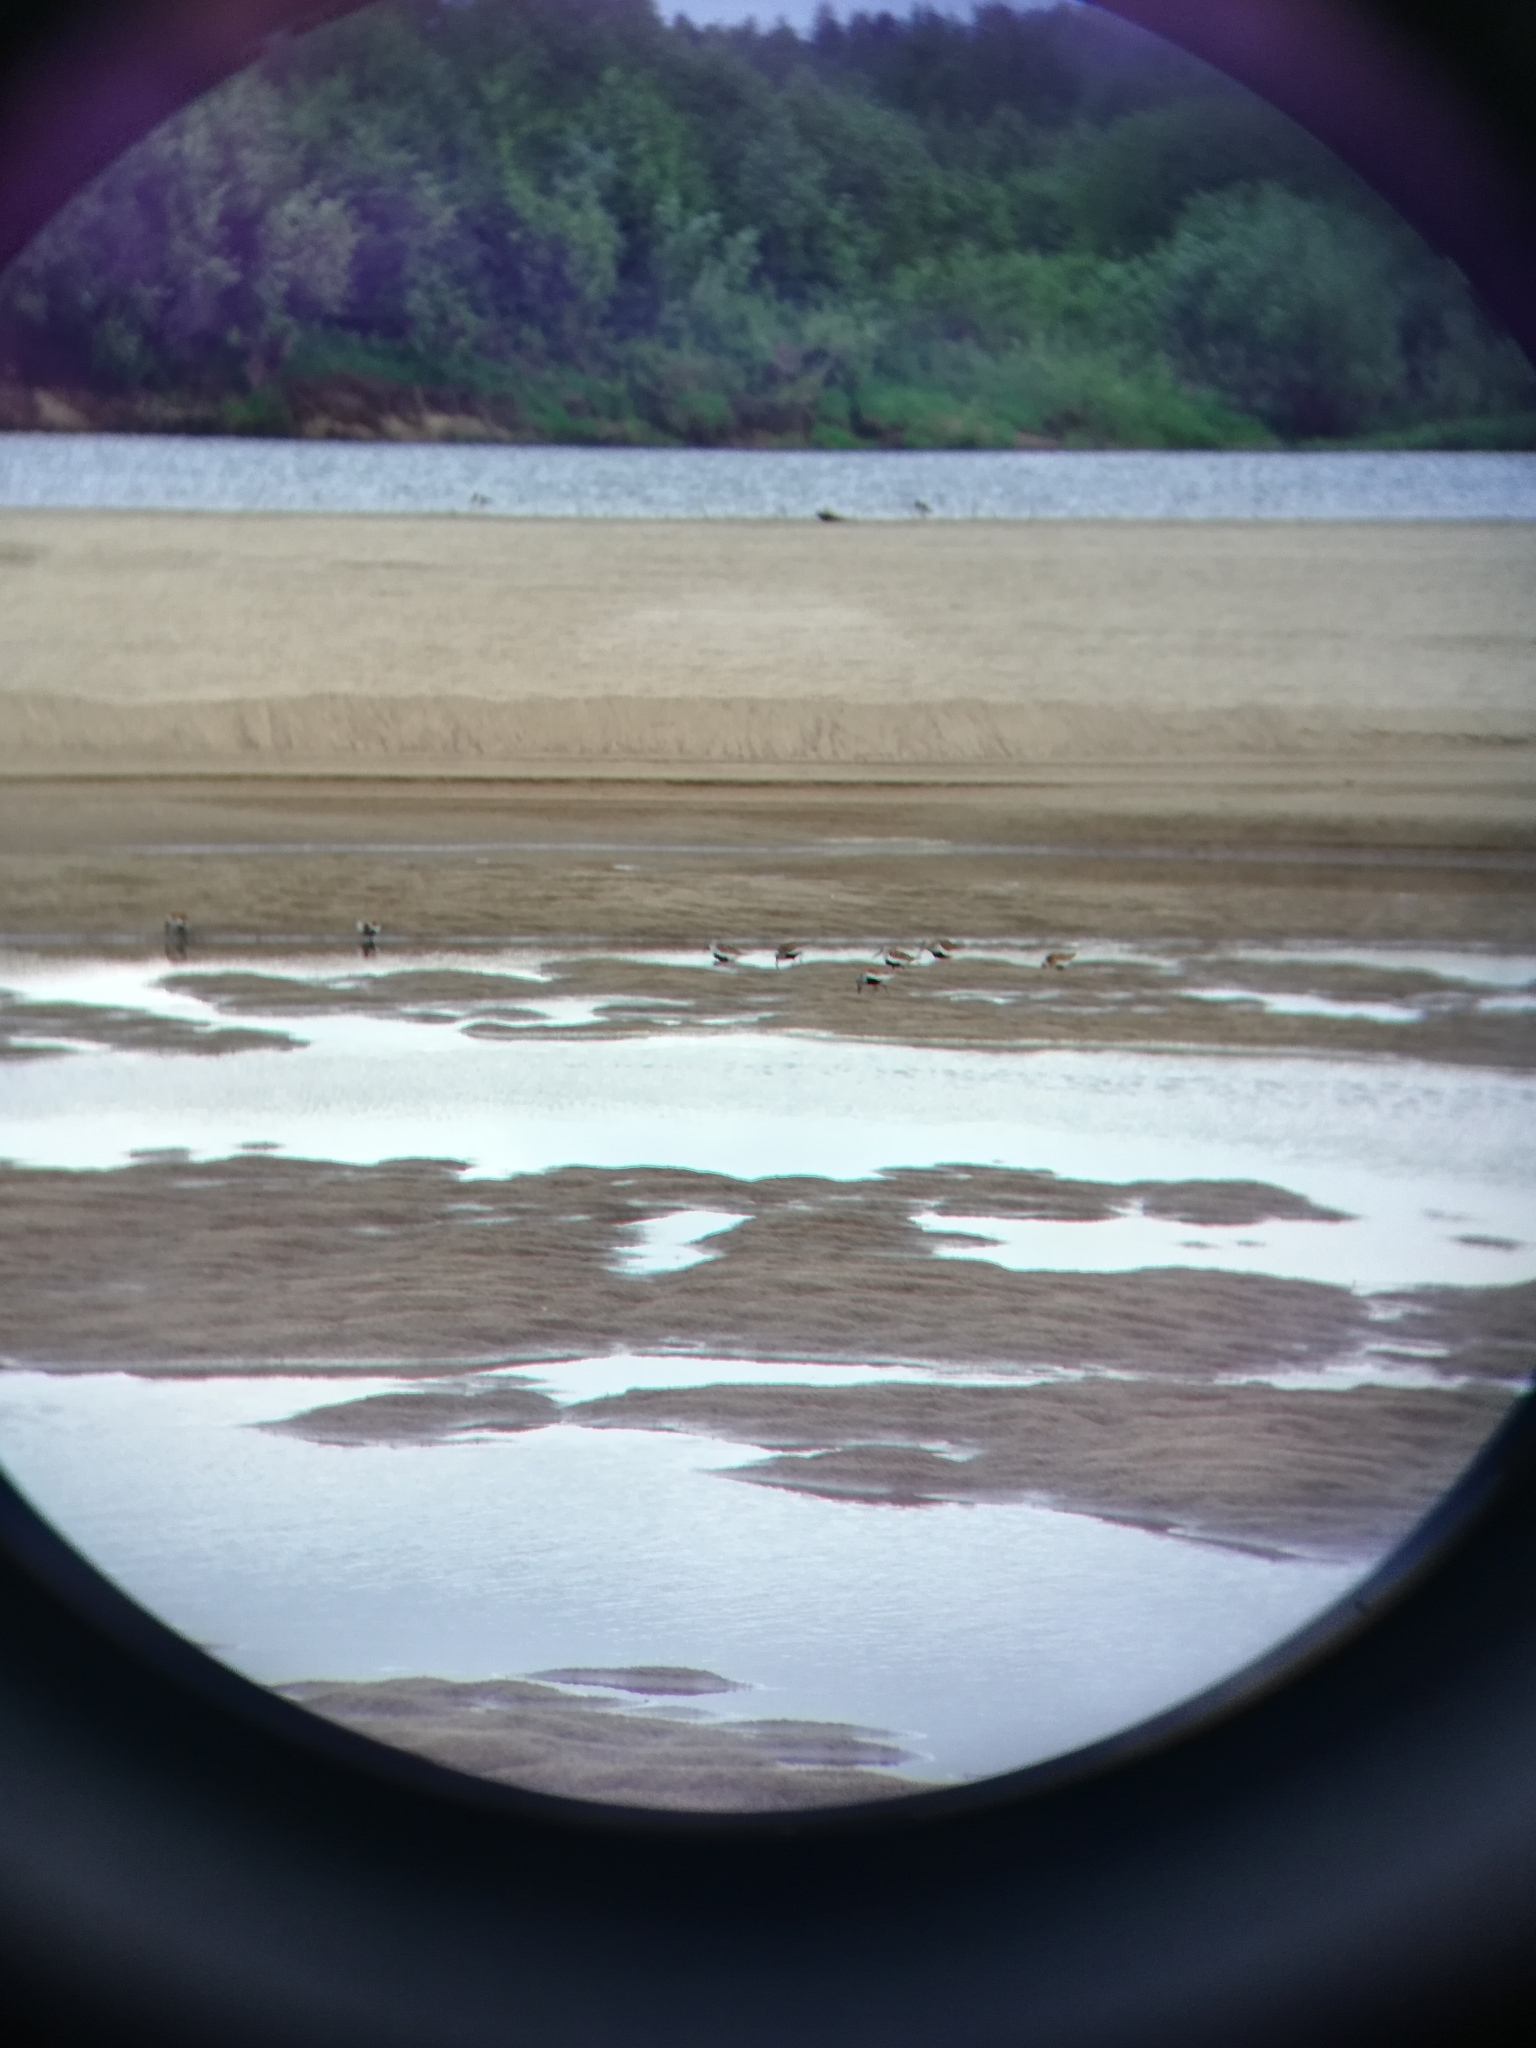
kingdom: Animalia
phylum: Chordata
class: Aves
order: Charadriiformes
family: Scolopacidae
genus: Calidris
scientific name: Calidris alpina
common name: Dunlin
